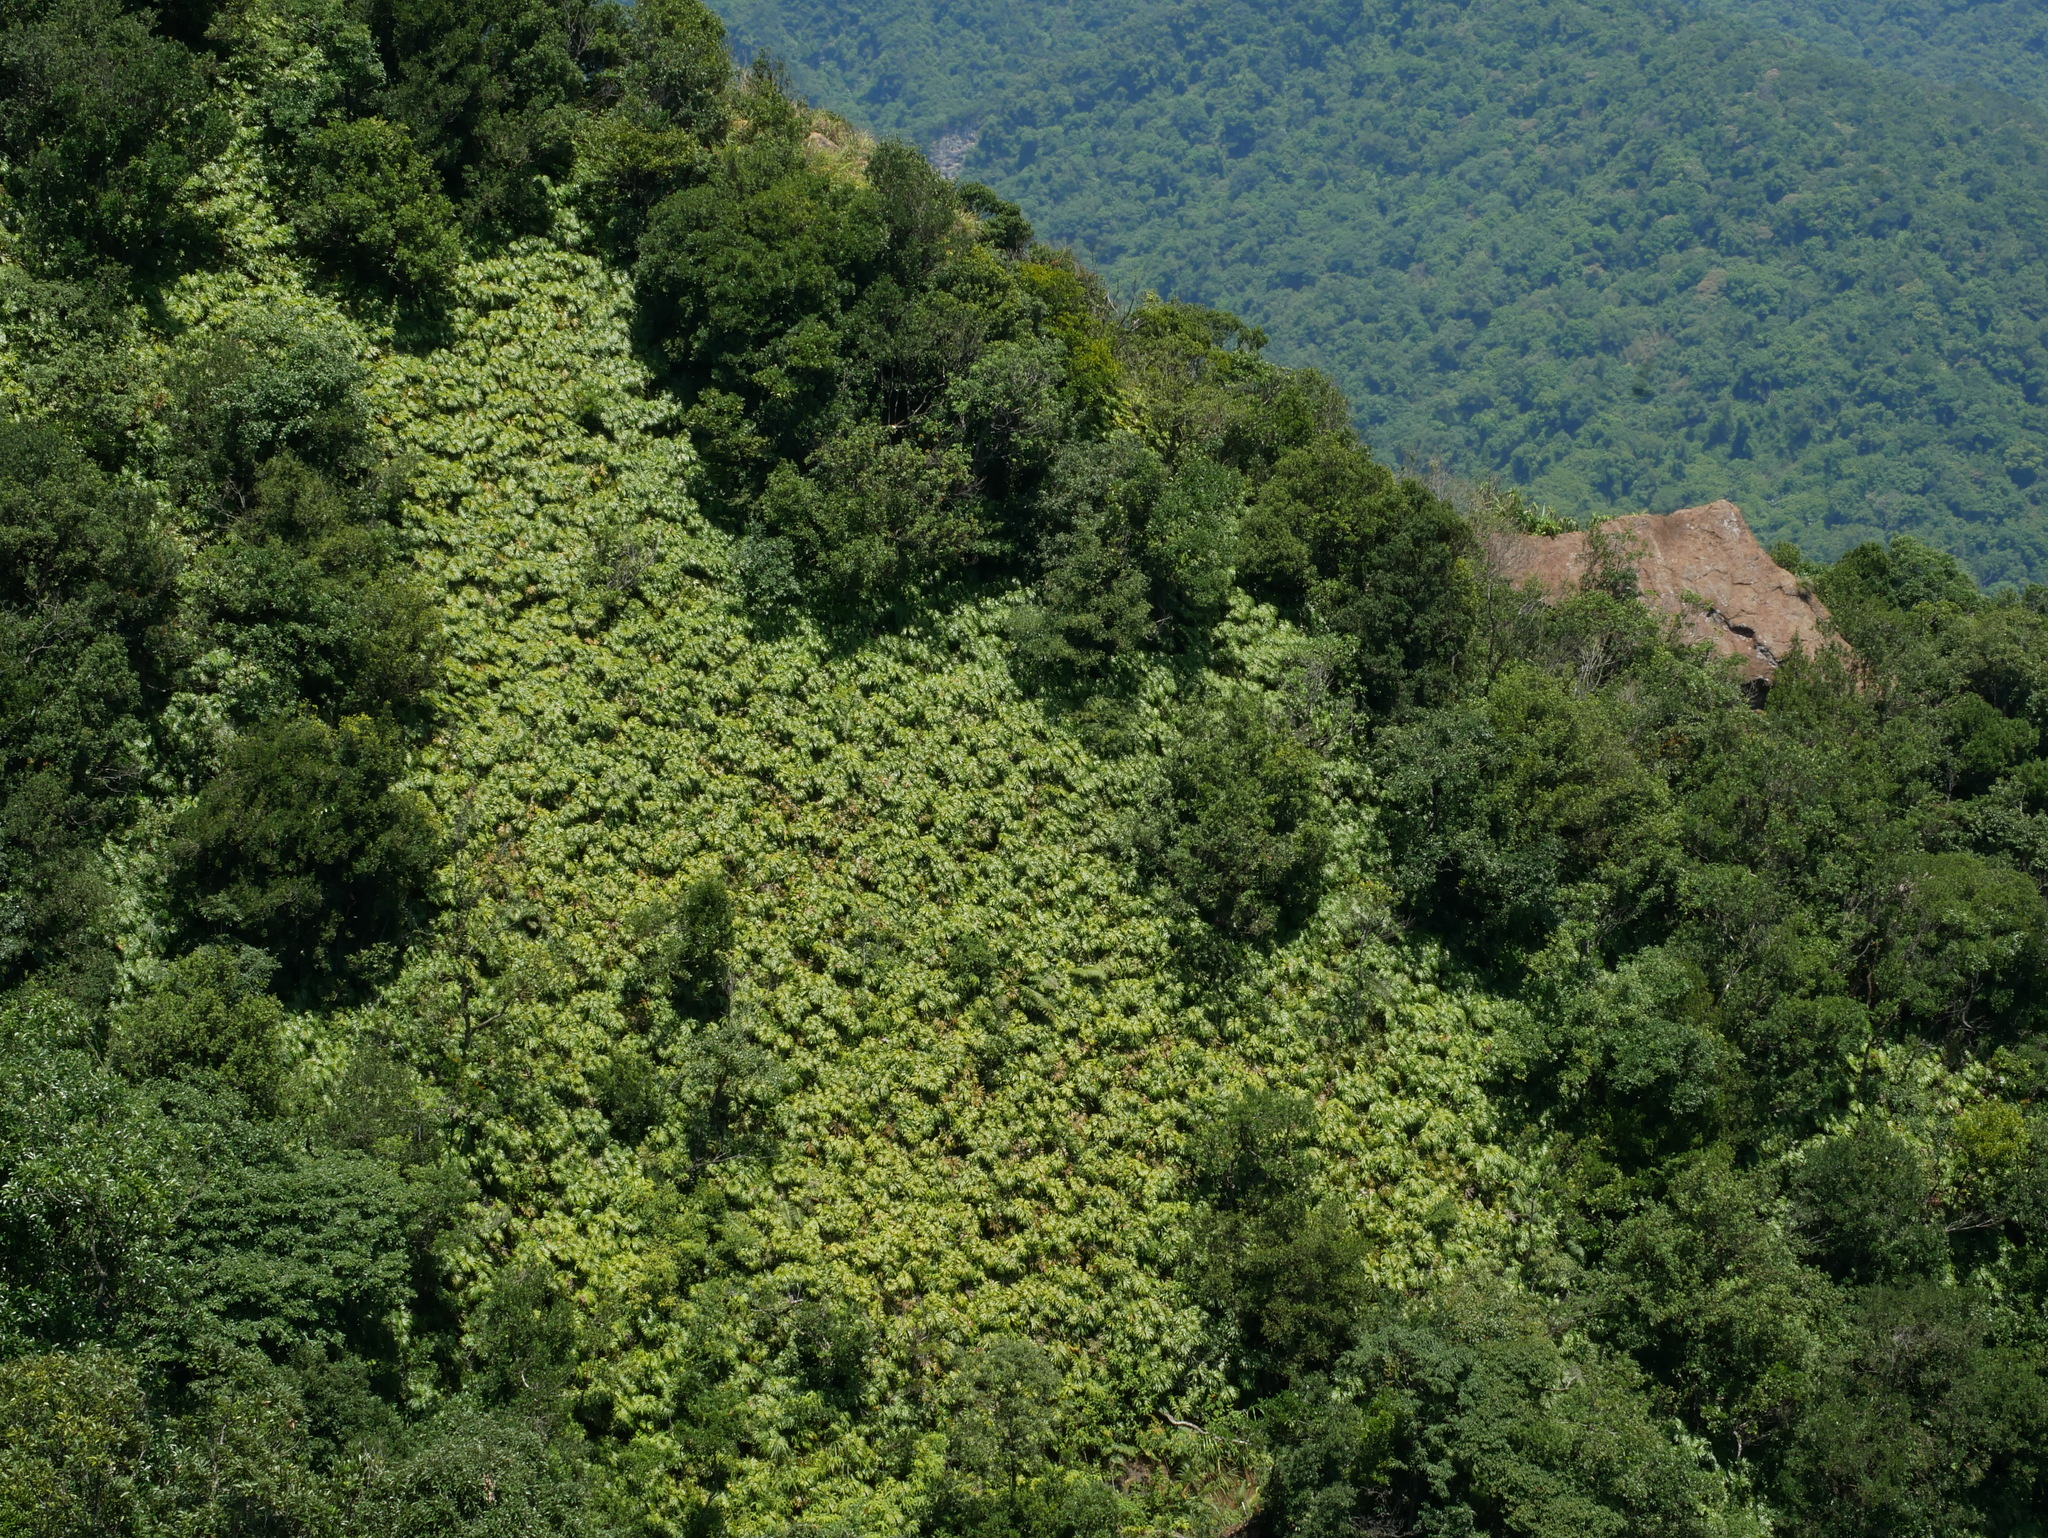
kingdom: Plantae
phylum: Tracheophyta
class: Polypodiopsida
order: Gleicheniales
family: Dipteridaceae
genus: Dipteris
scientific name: Dipteris conjugata
